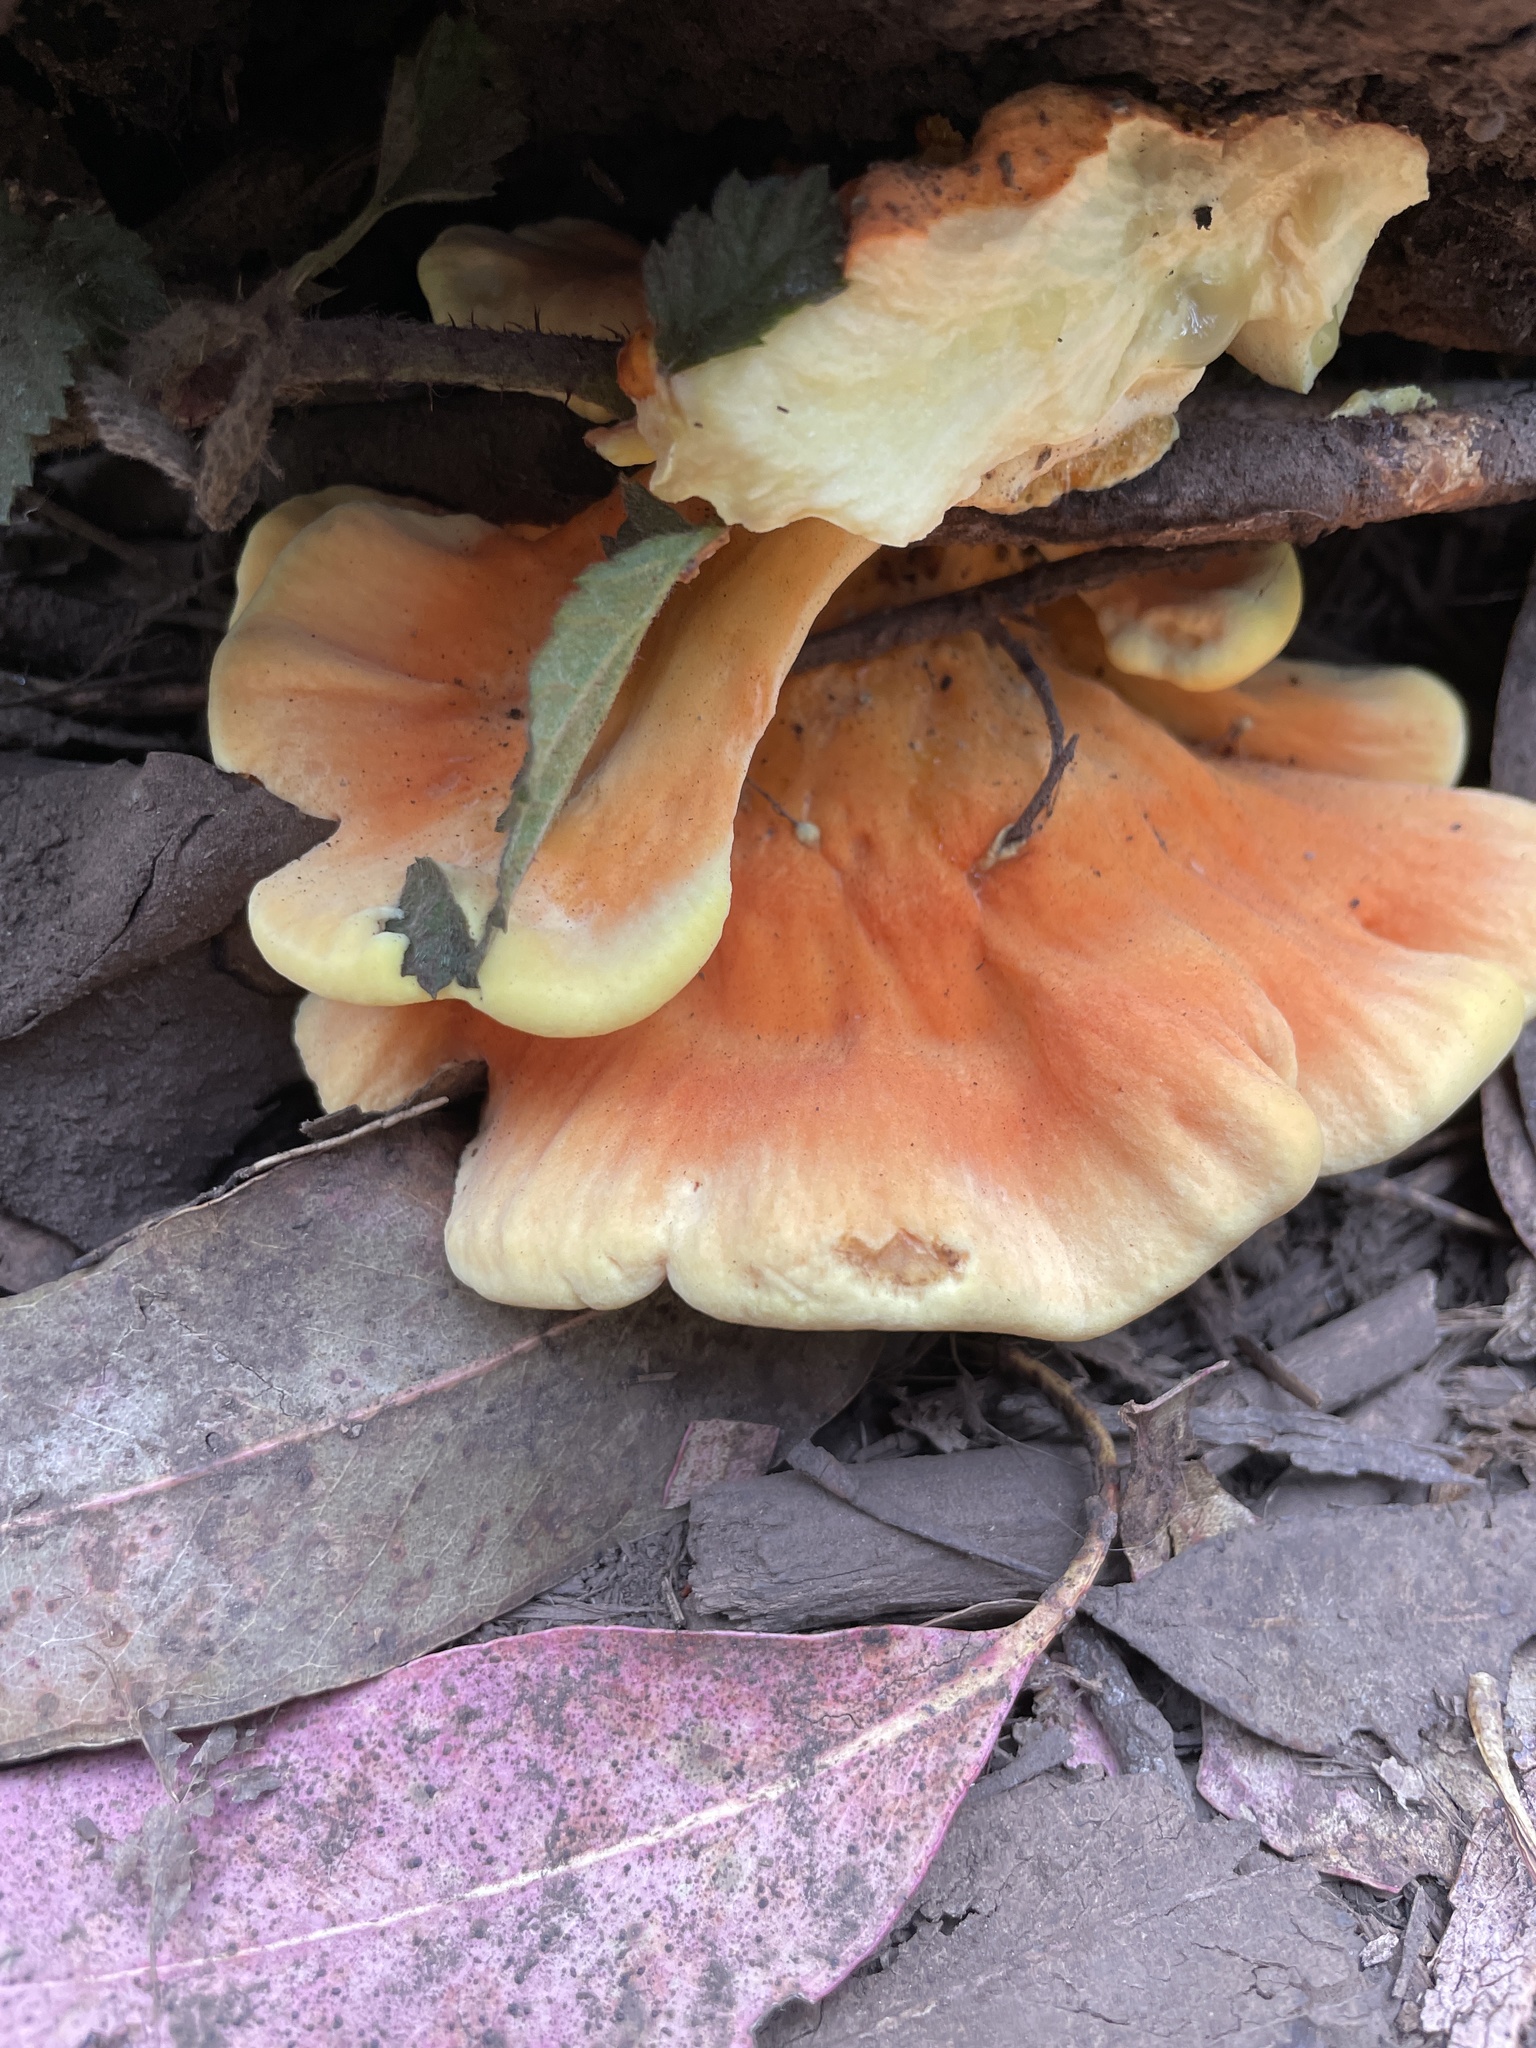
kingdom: Fungi
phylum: Basidiomycota
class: Agaricomycetes
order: Polyporales
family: Laetiporaceae
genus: Laetiporus
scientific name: Laetiporus gilbertsonii
